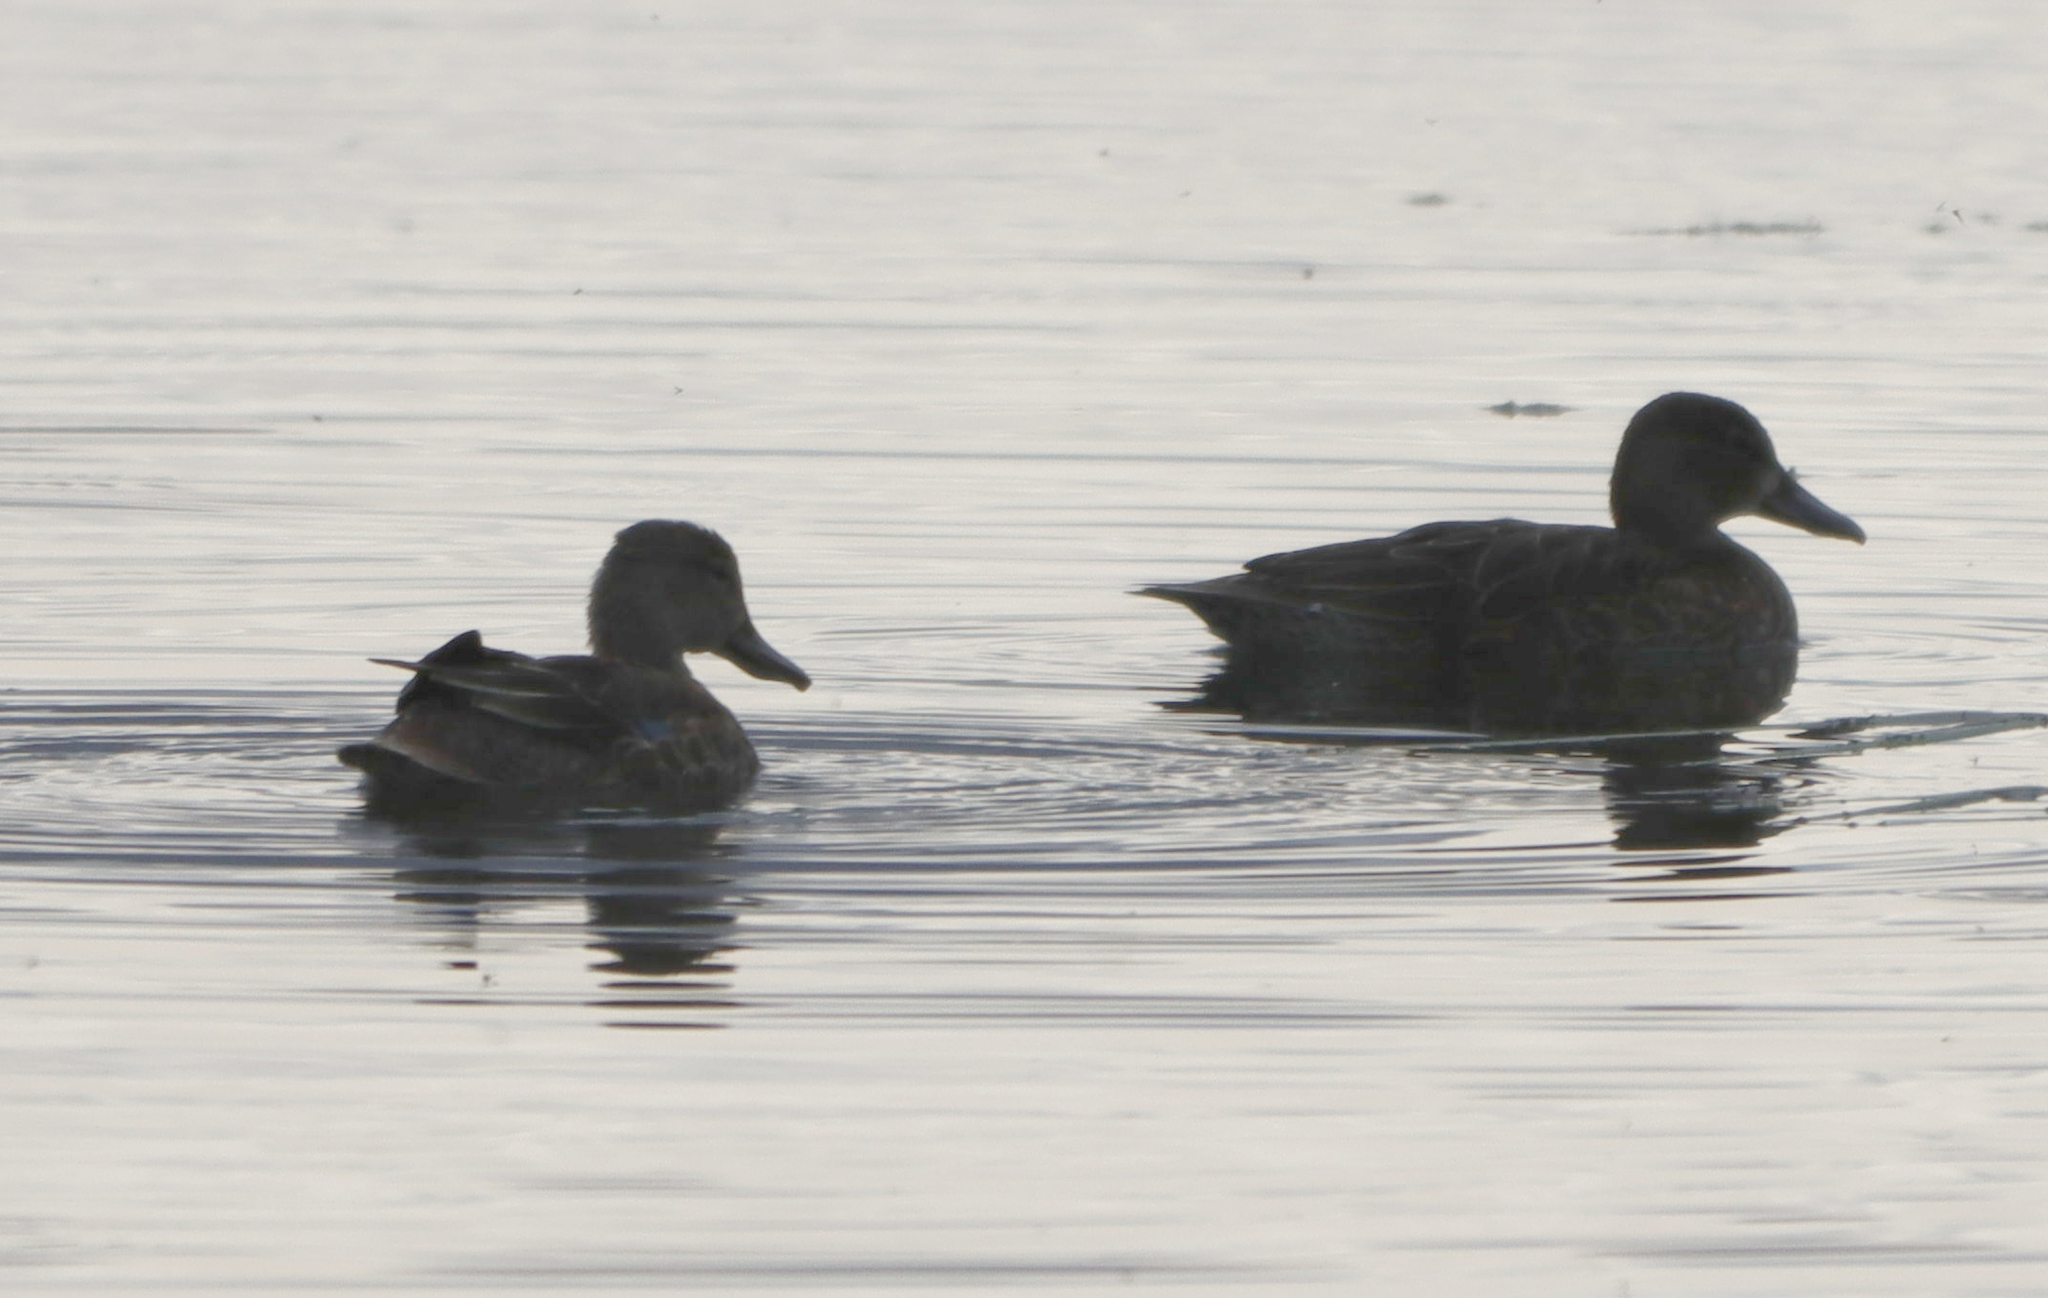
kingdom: Animalia
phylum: Chordata
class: Aves
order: Anseriformes
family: Anatidae
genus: Spatula
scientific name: Spatula discors
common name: Blue-winged teal
